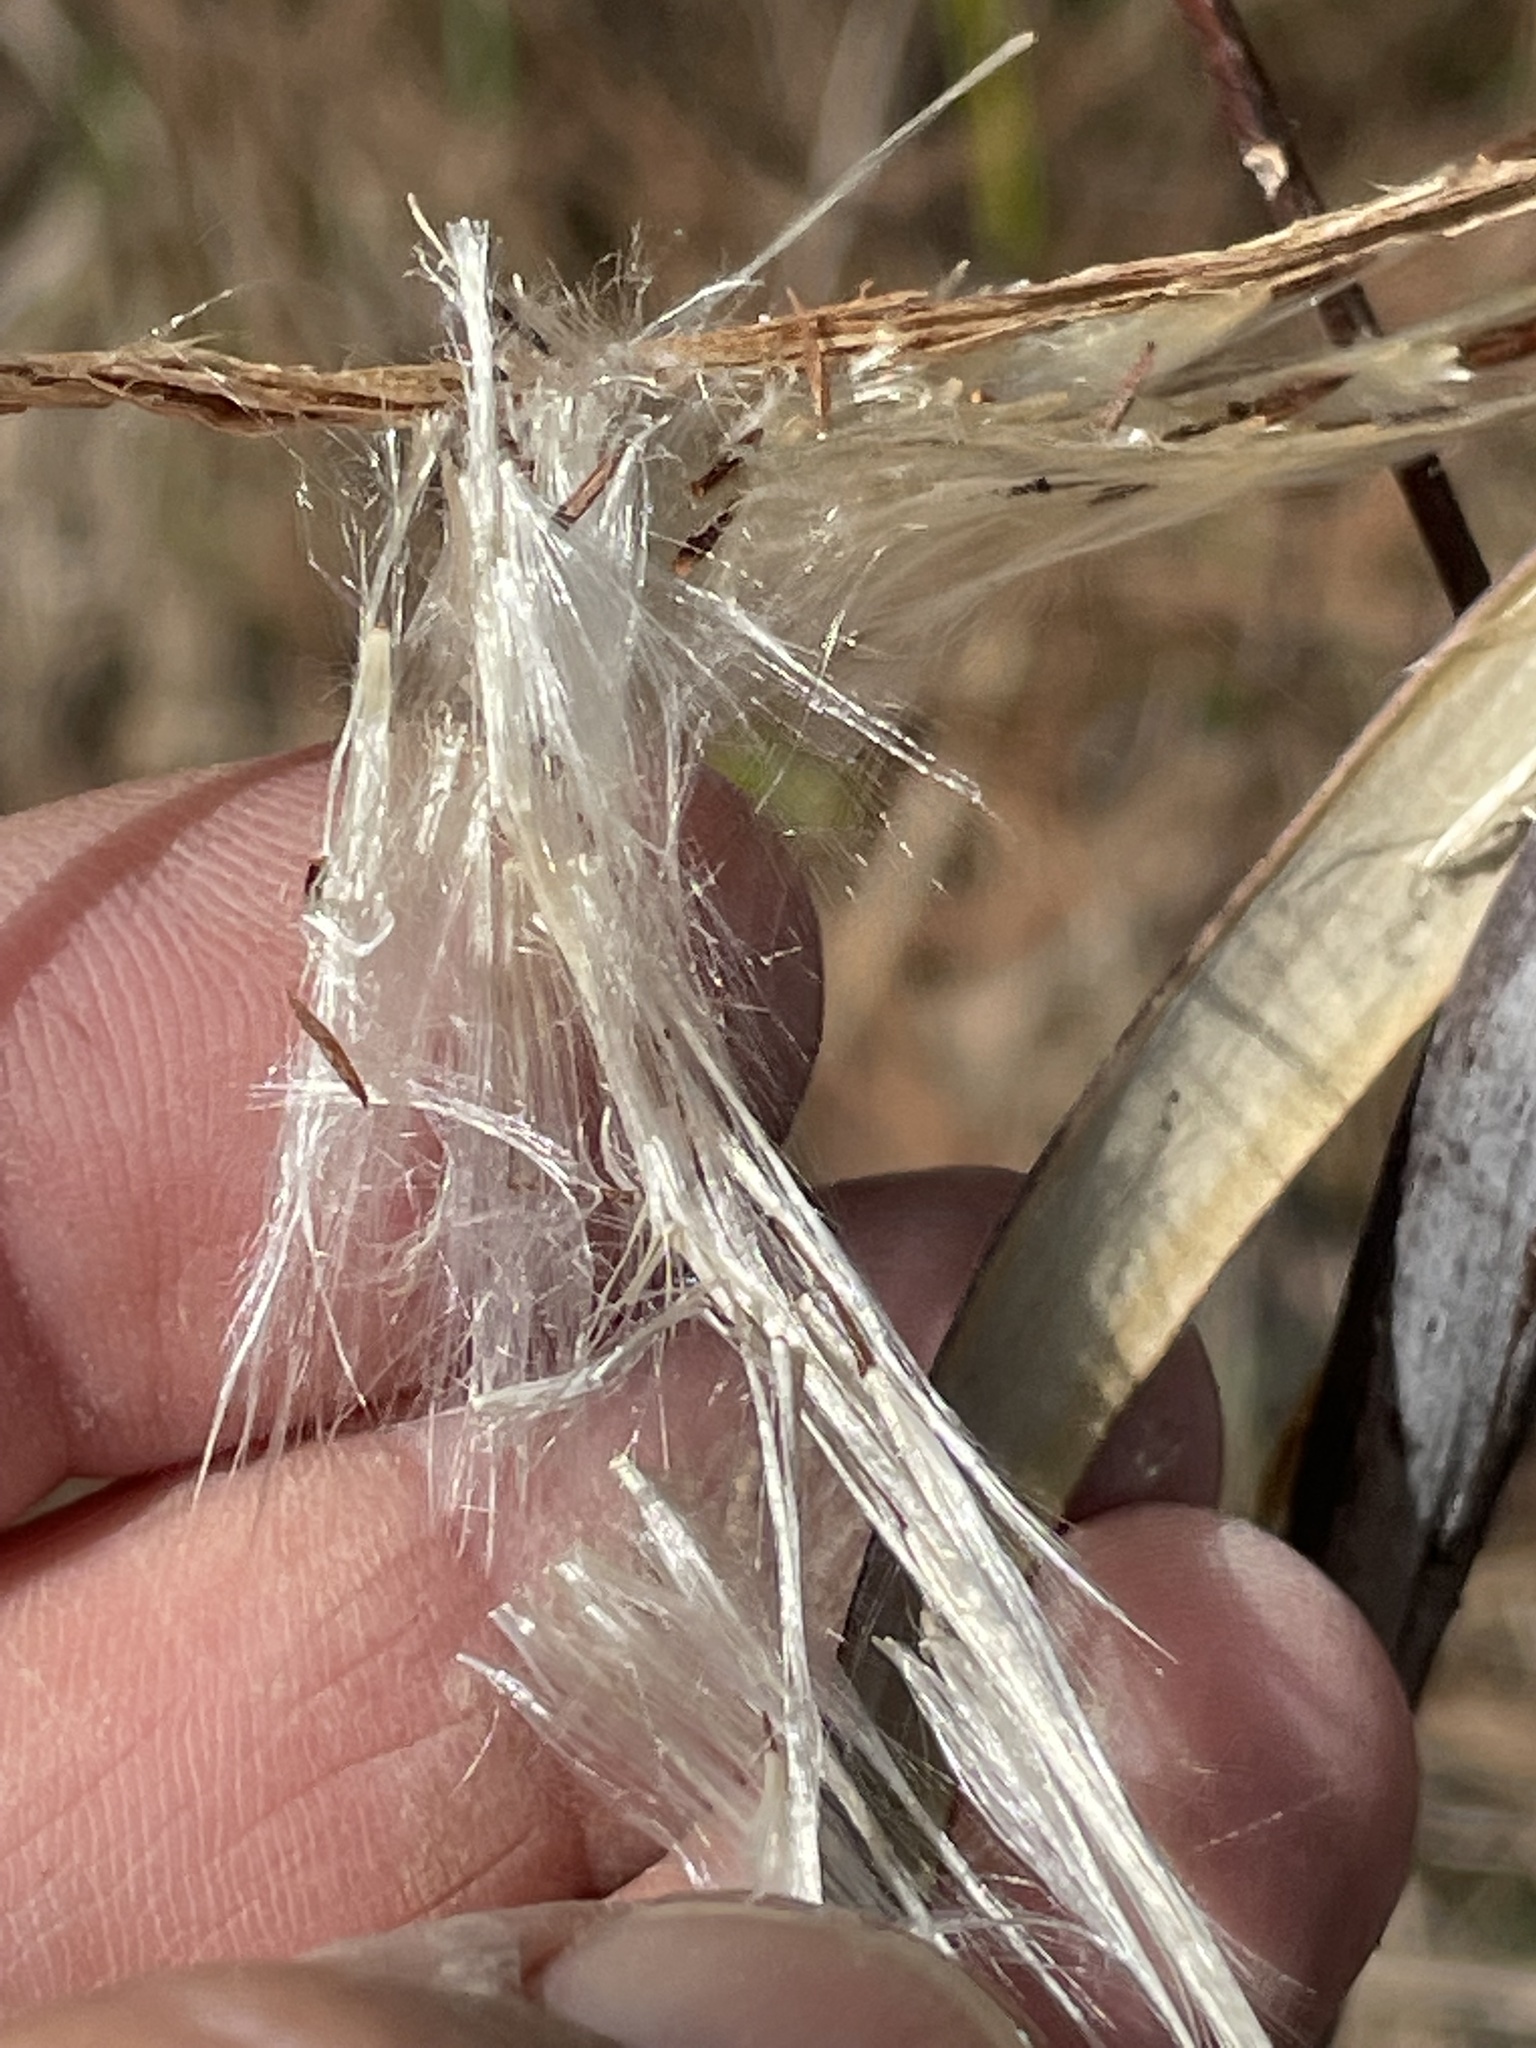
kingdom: Plantae
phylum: Tracheophyta
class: Magnoliopsida
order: Gentianales
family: Apocynaceae
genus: Apocynum
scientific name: Apocynum cannabinum
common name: Hemp dogbane
